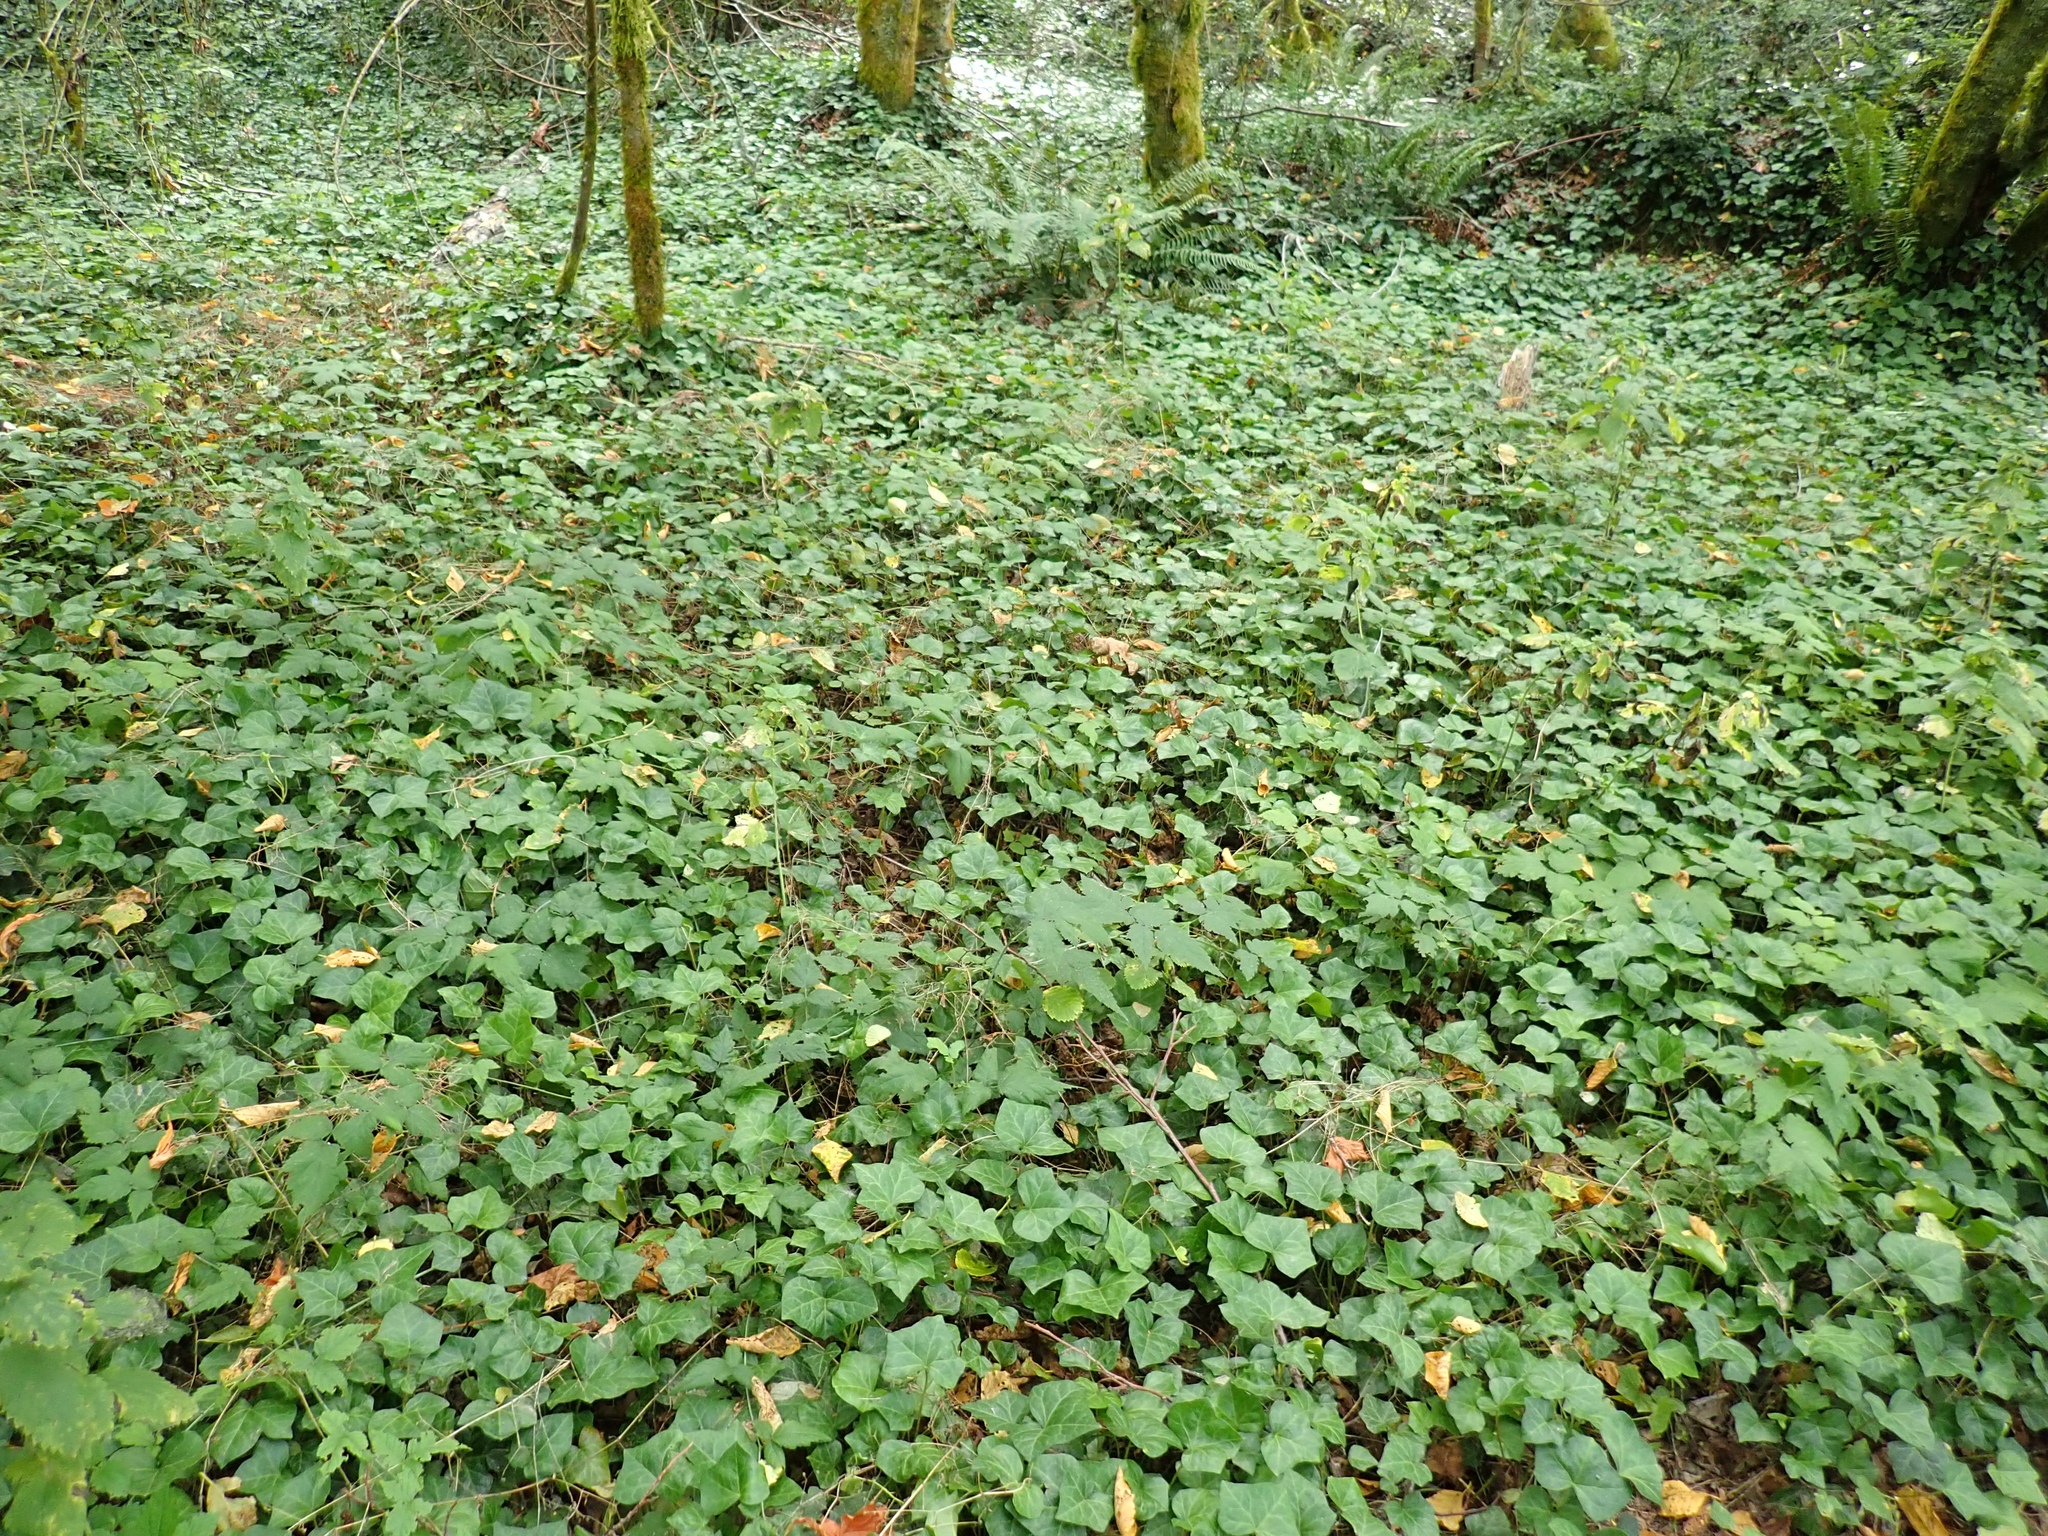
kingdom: Plantae
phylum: Tracheophyta
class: Magnoliopsida
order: Apiales
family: Araliaceae
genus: Hedera
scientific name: Hedera helix
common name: Ivy
